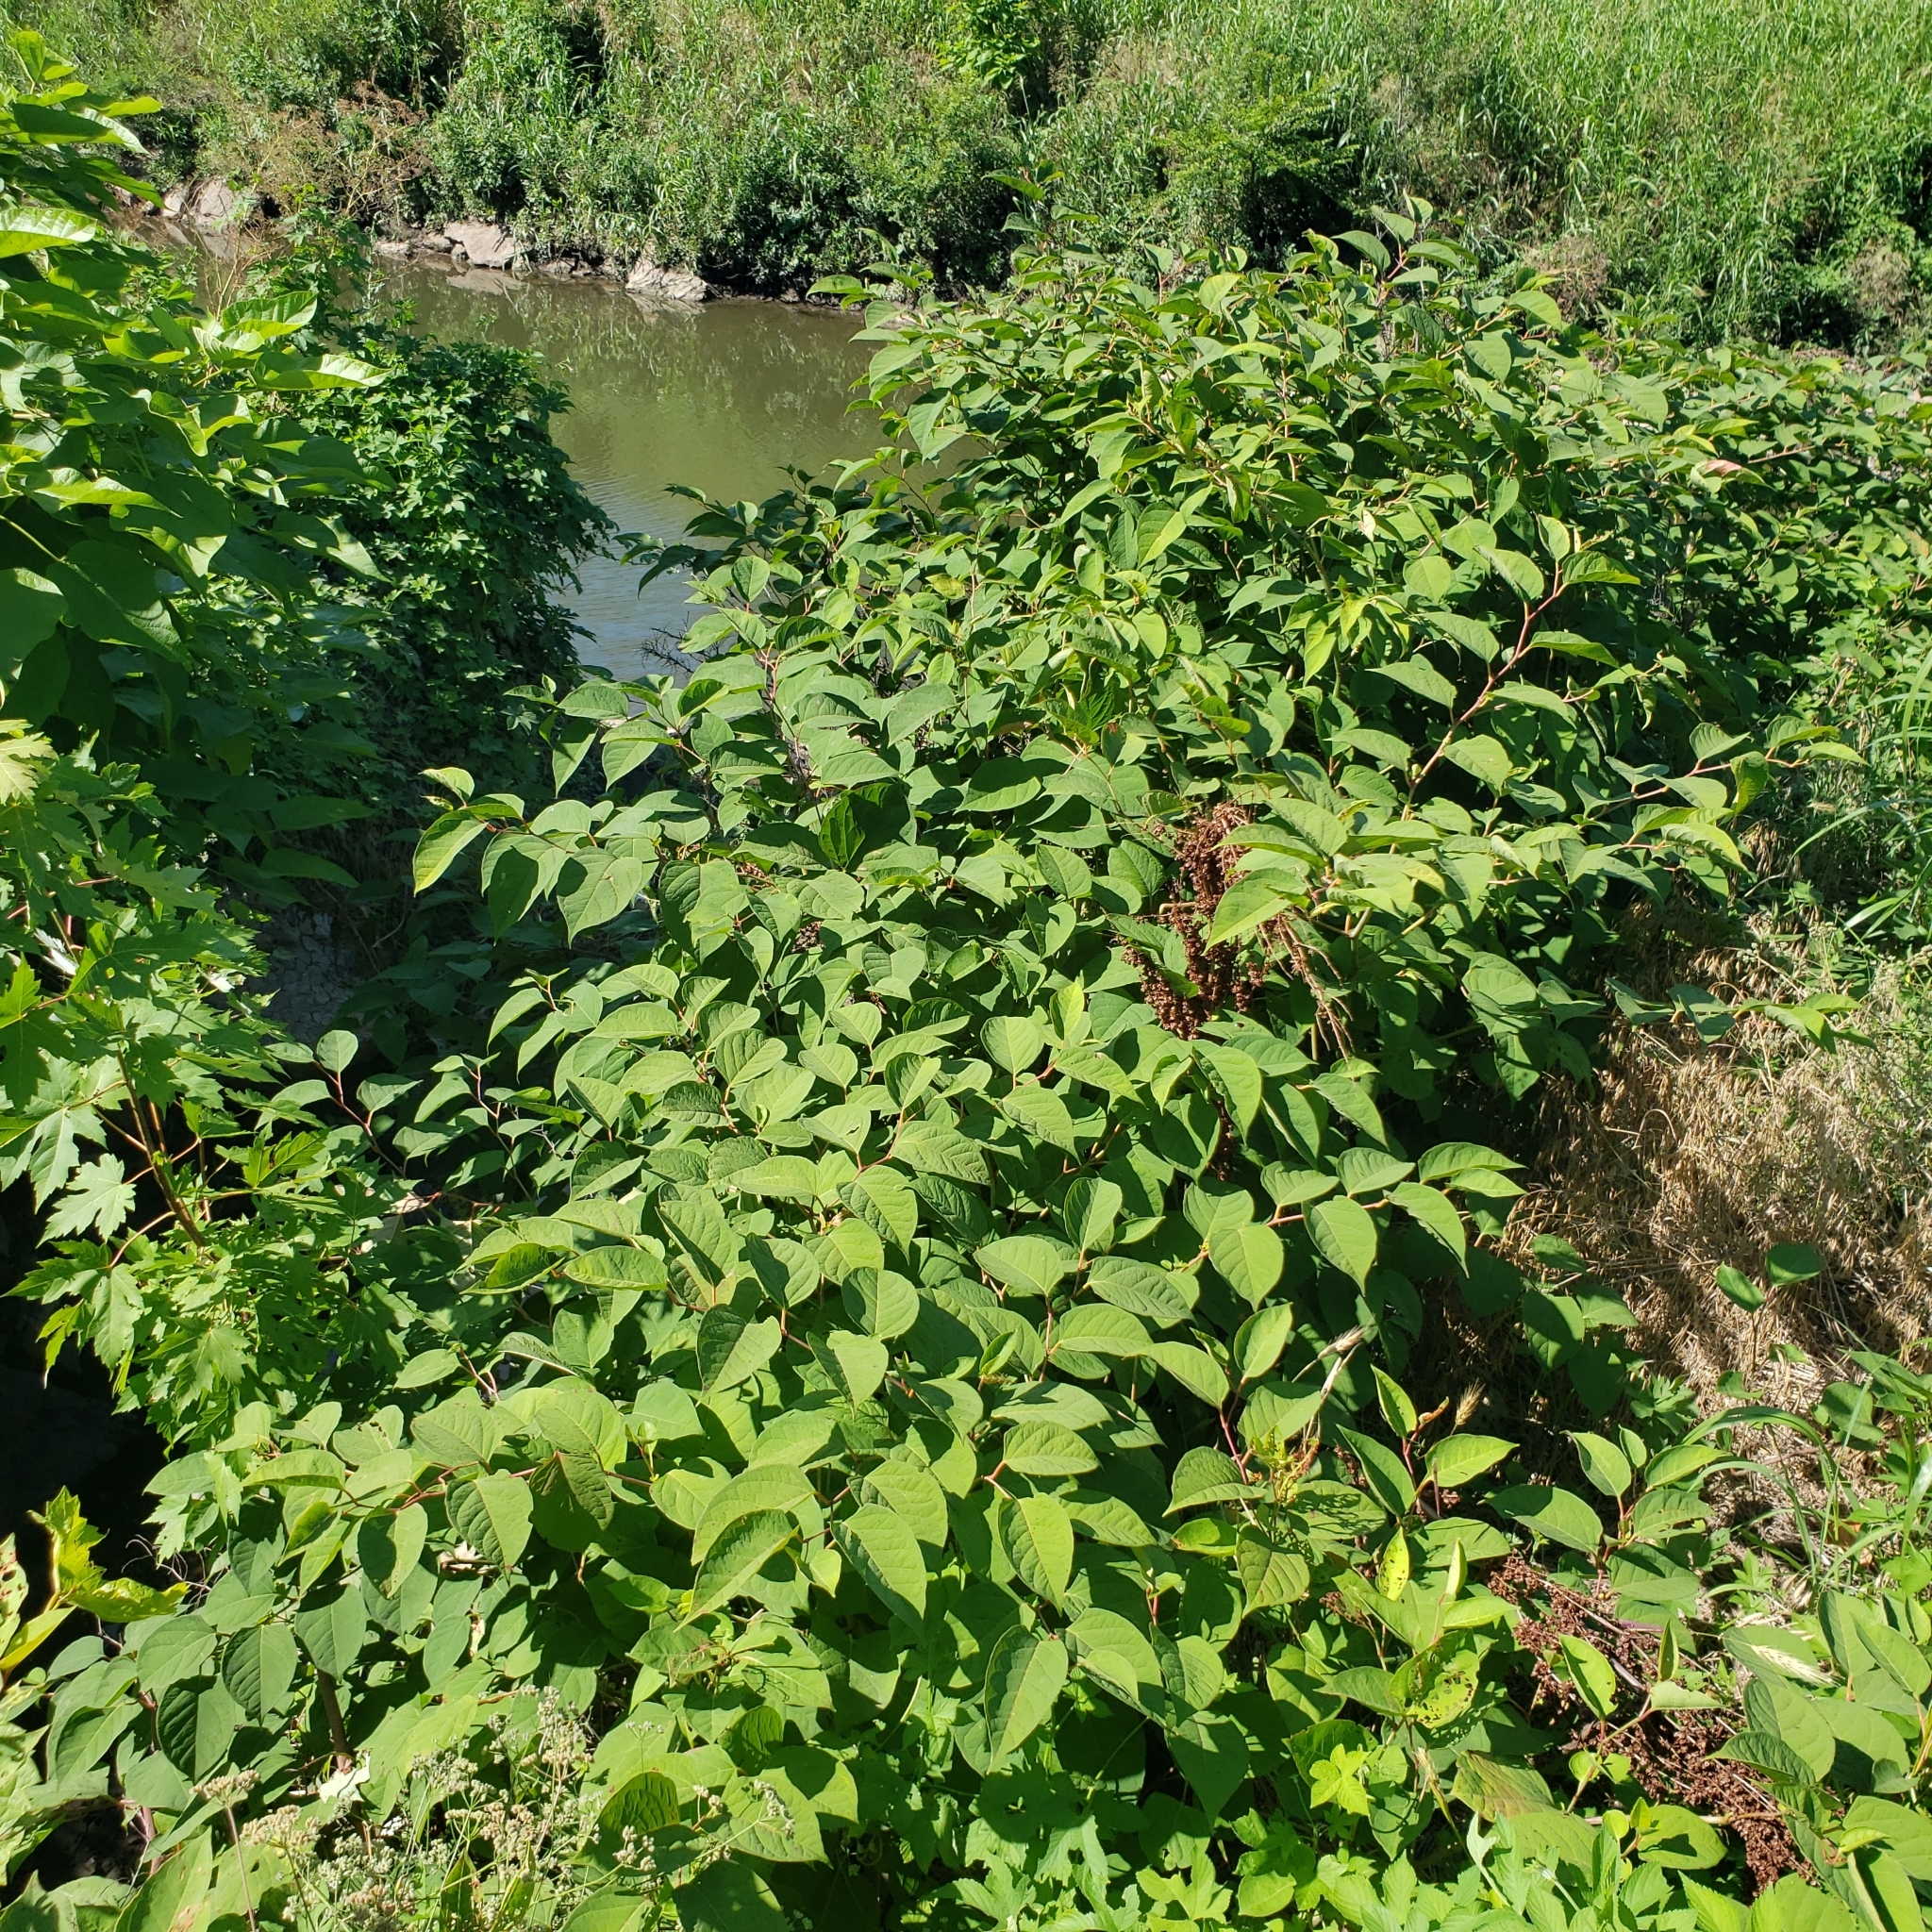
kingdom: Plantae
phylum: Tracheophyta
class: Magnoliopsida
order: Caryophyllales
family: Polygonaceae
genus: Reynoutria
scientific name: Reynoutria japonica
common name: Japanese knotweed
